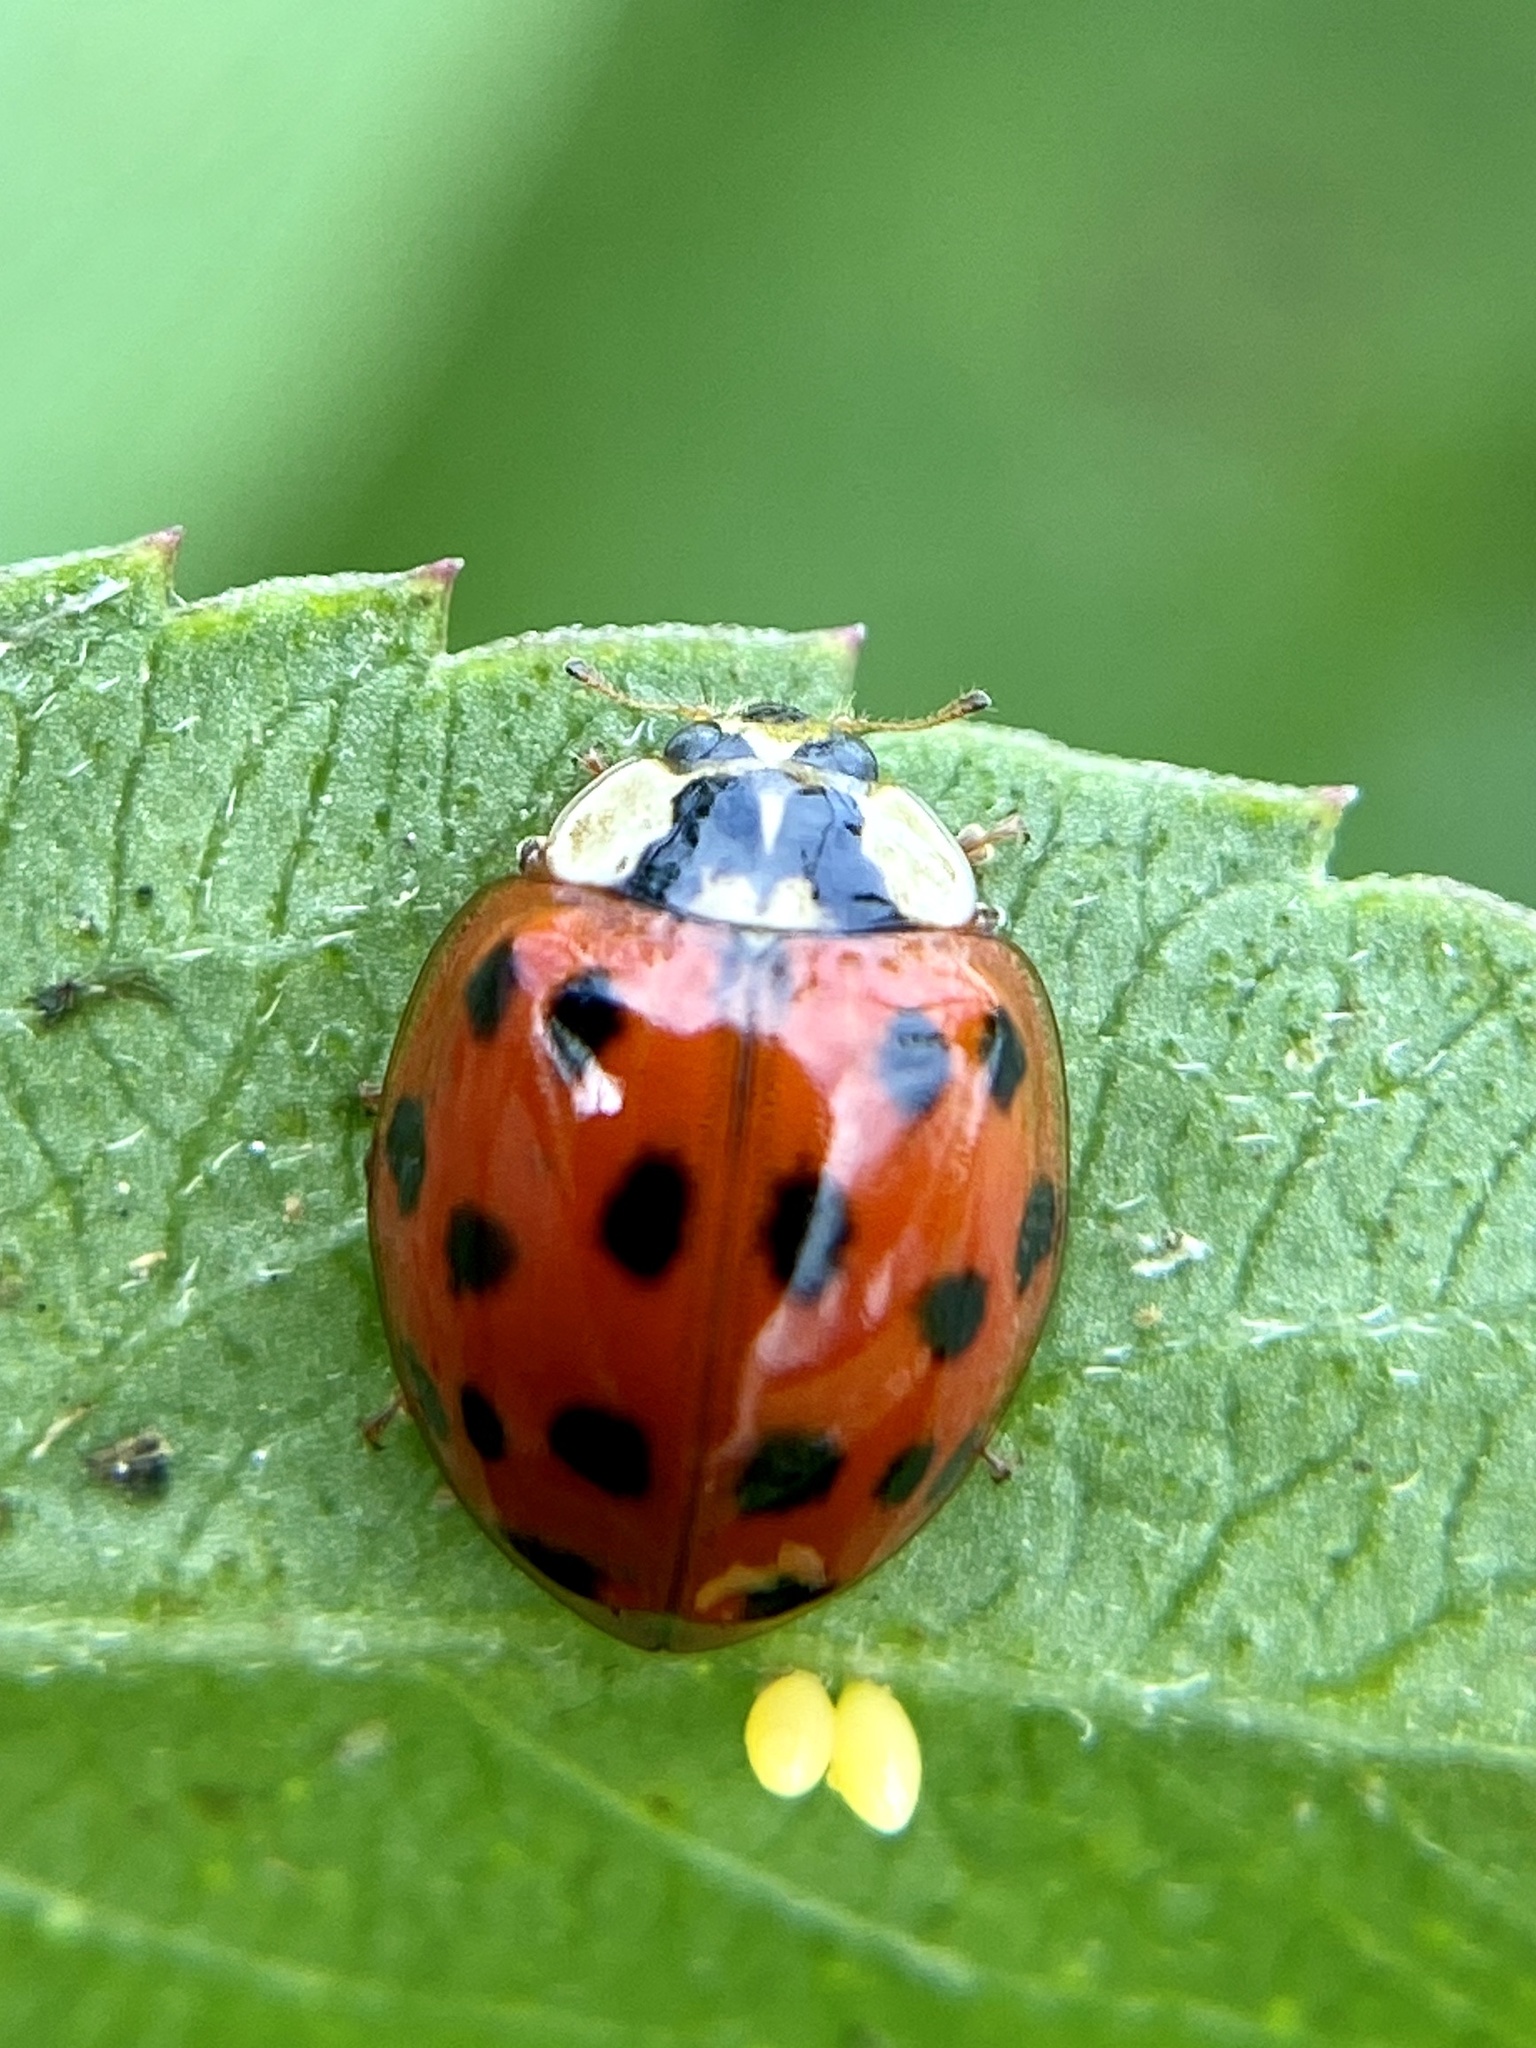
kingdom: Animalia
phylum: Arthropoda
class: Insecta
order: Coleoptera
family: Coccinellidae
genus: Harmonia
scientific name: Harmonia axyridis
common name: Harlequin ladybird
